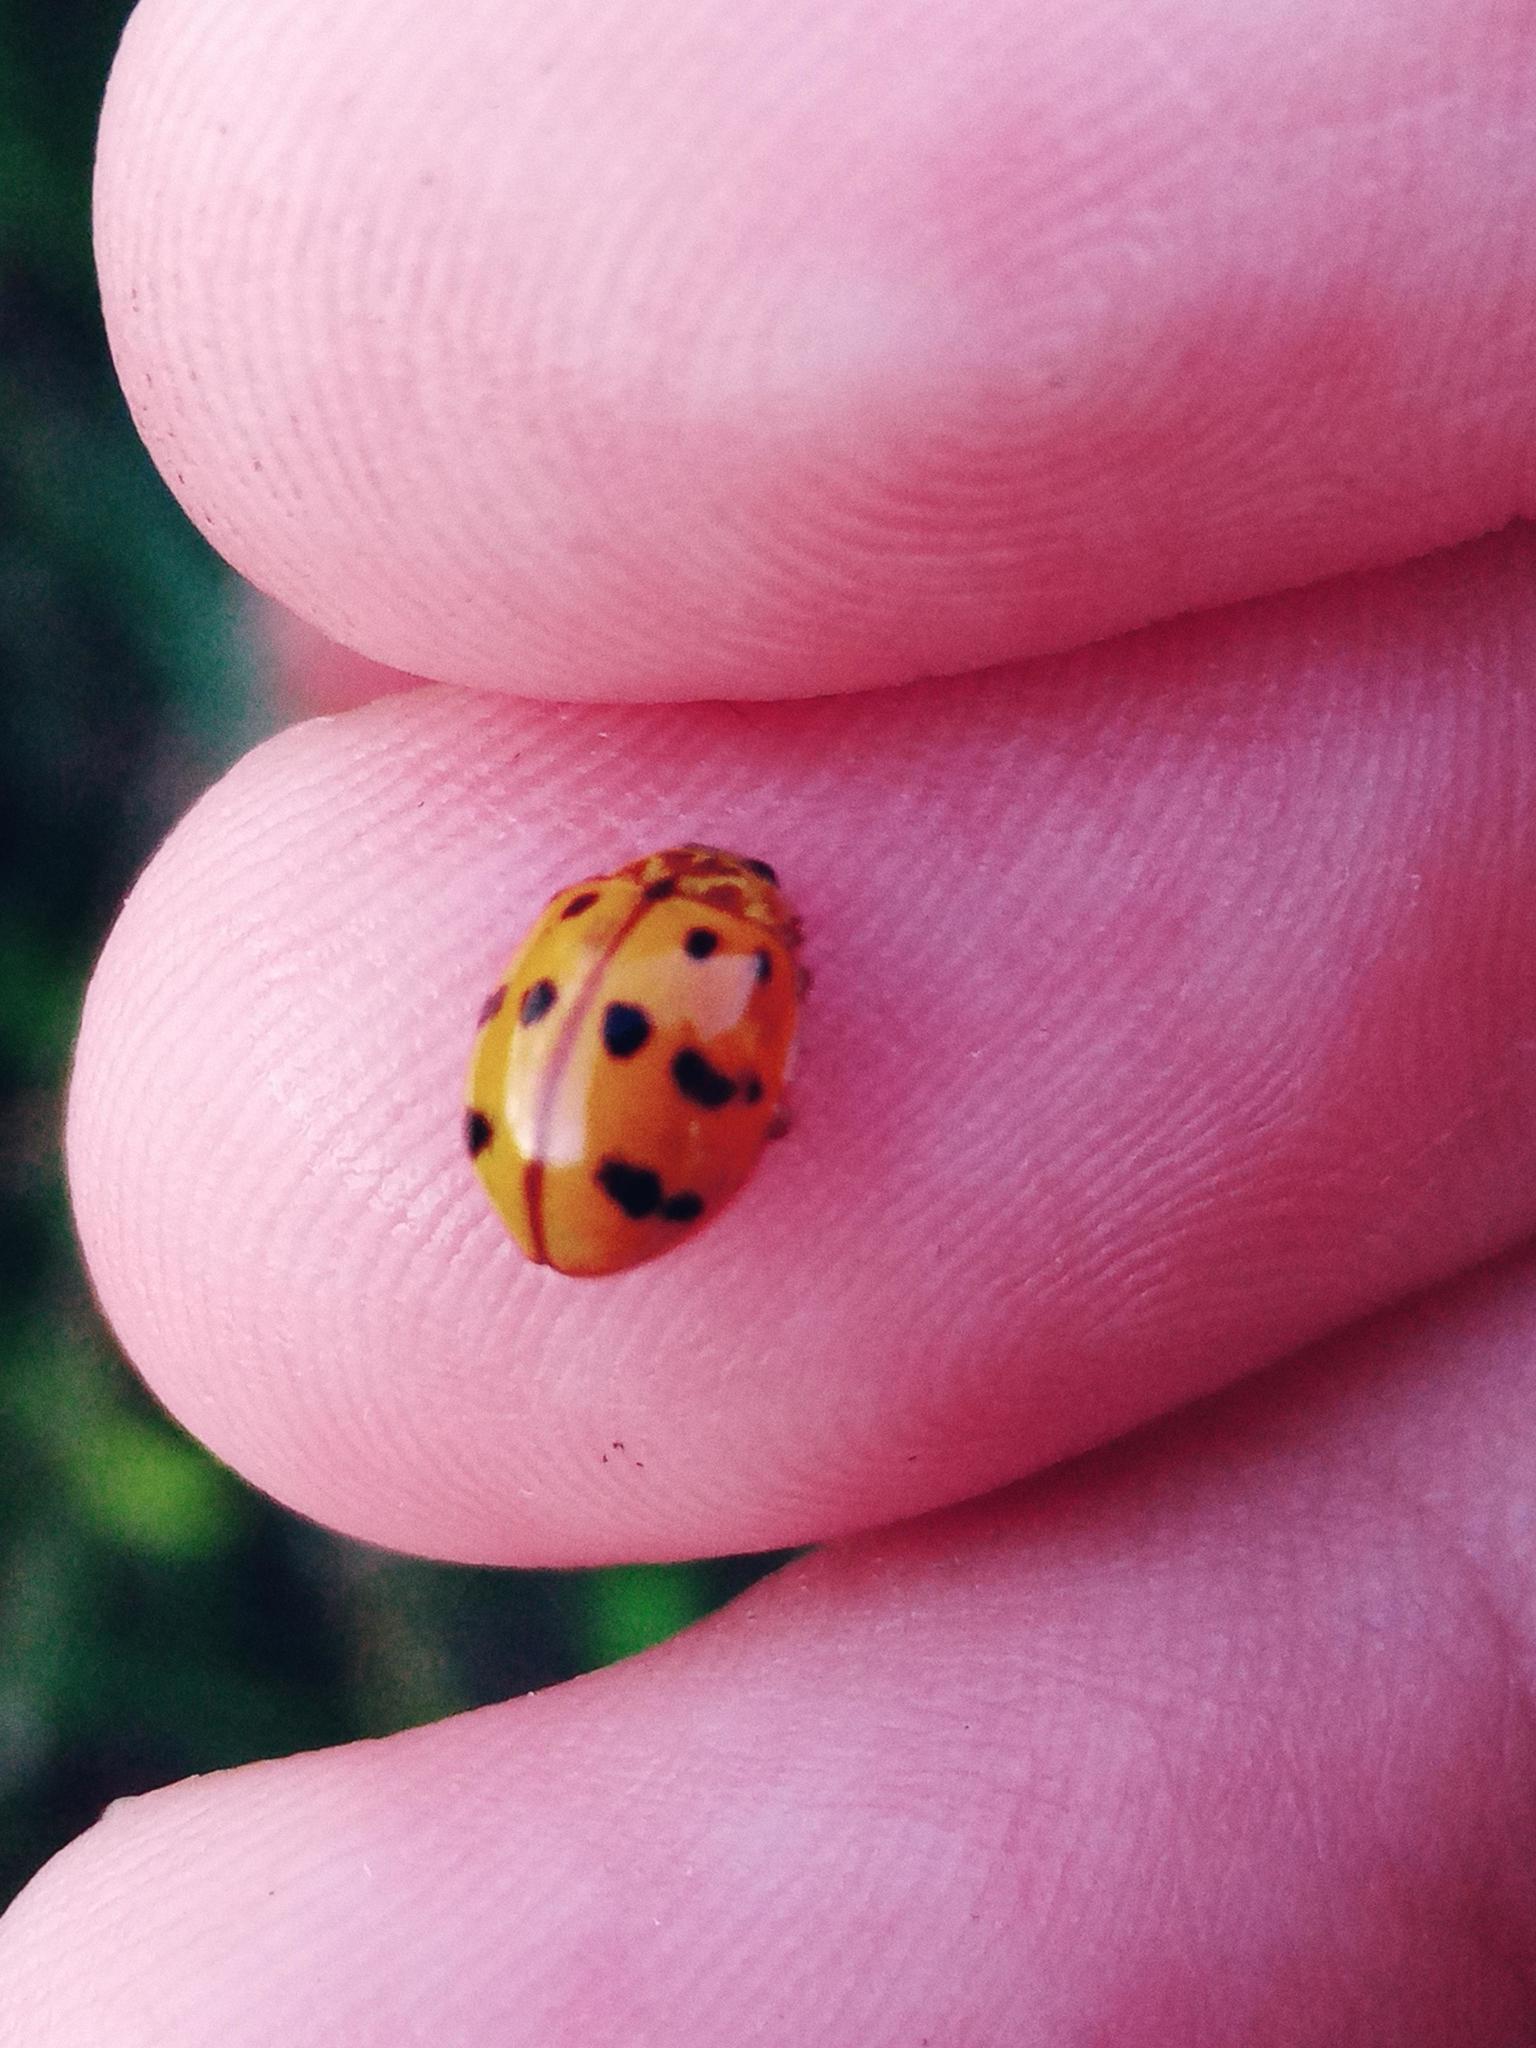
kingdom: Animalia
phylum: Arthropoda
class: Insecta
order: Coleoptera
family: Coccinellidae
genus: Harmonia
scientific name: Harmonia octomaculata
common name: Lady beetle
